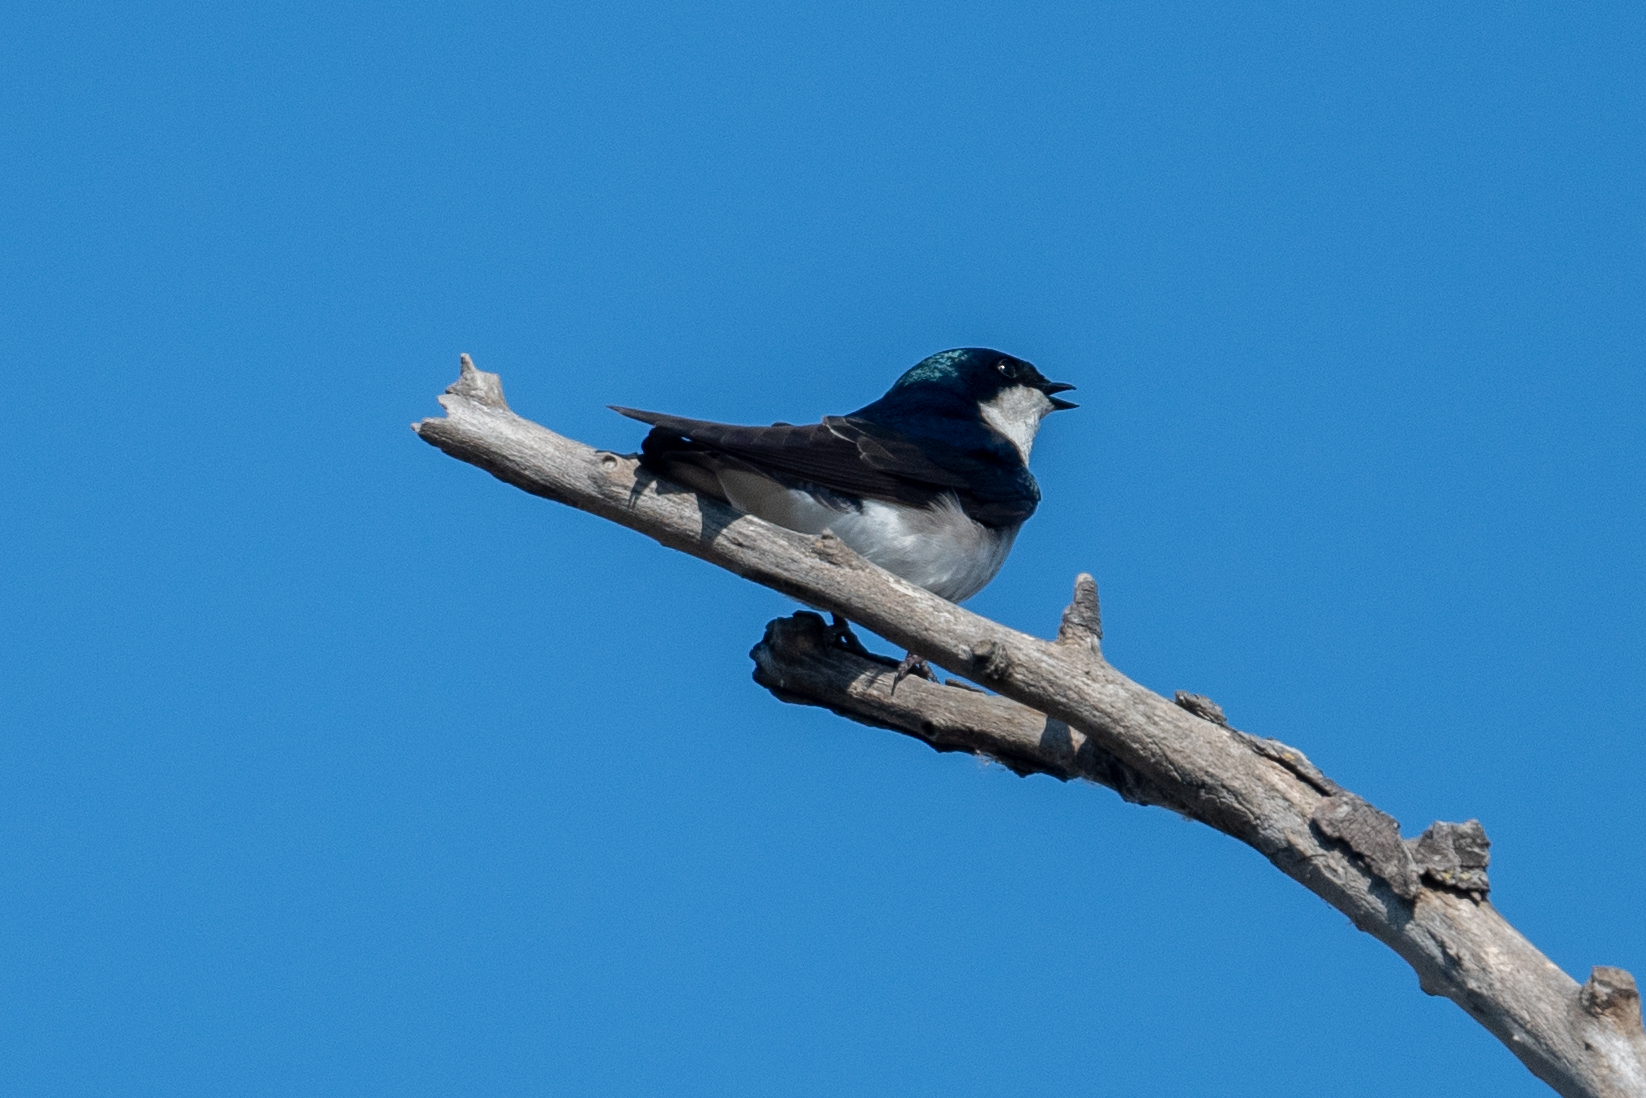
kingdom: Animalia
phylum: Chordata
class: Aves
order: Passeriformes
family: Hirundinidae
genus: Tachycineta
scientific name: Tachycineta bicolor
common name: Tree swallow
